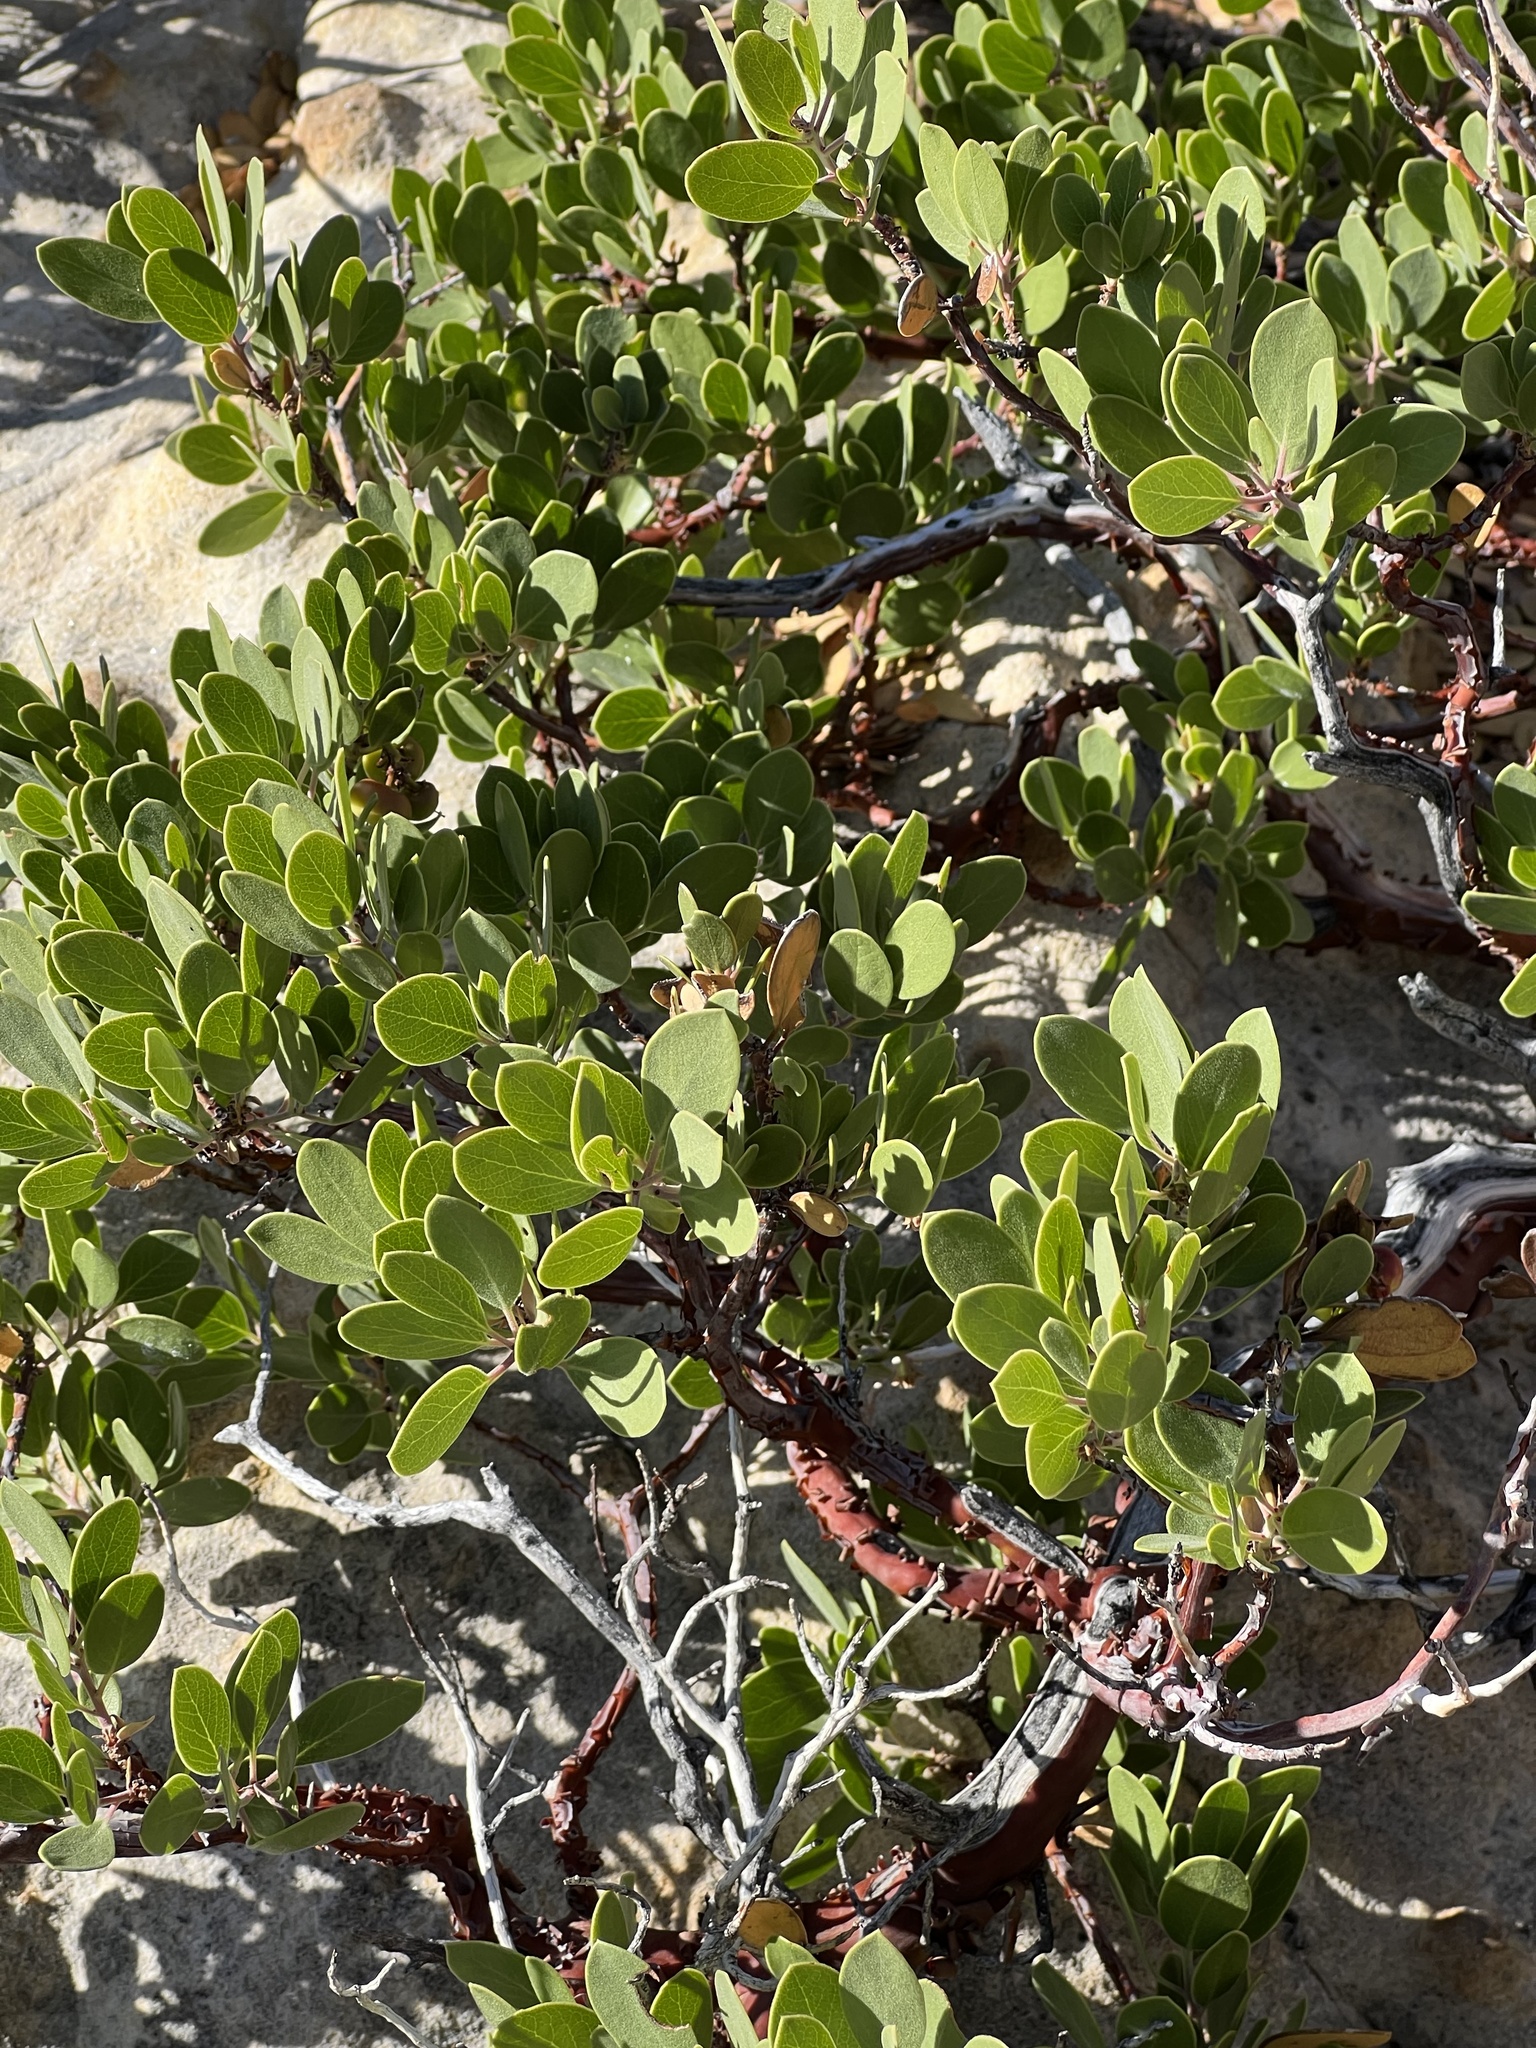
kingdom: Plantae
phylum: Tracheophyta
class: Magnoliopsida
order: Ericales
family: Ericaceae
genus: Arctostaphylos
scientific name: Arctostaphylos pungens
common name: Mexican manzanita
